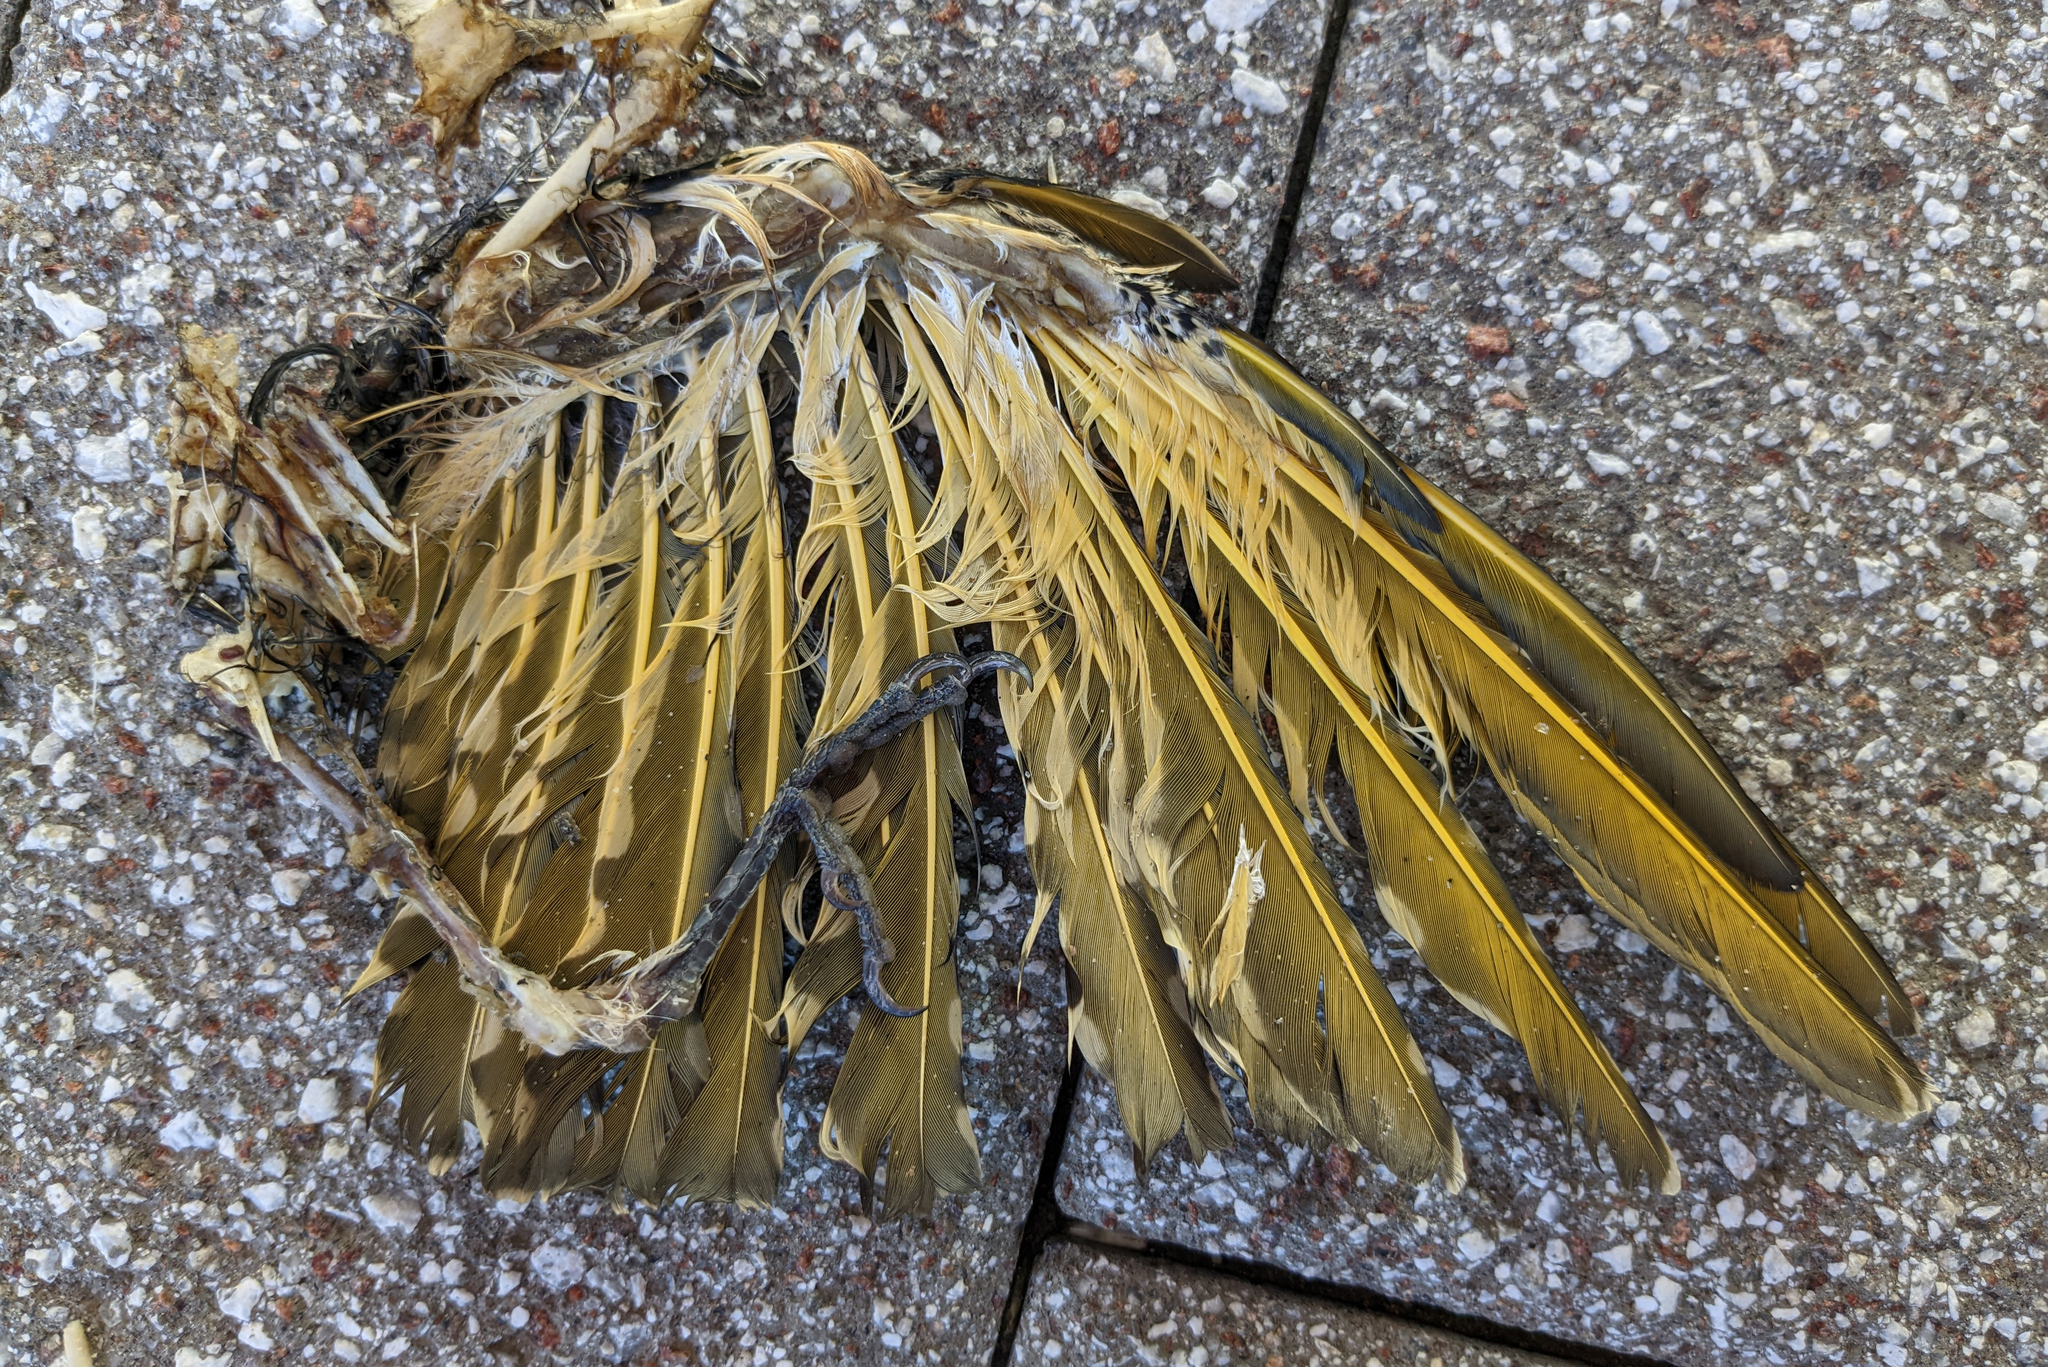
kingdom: Animalia
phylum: Chordata
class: Aves
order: Piciformes
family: Picidae
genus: Colaptes
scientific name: Colaptes auratus
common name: Northern flicker
